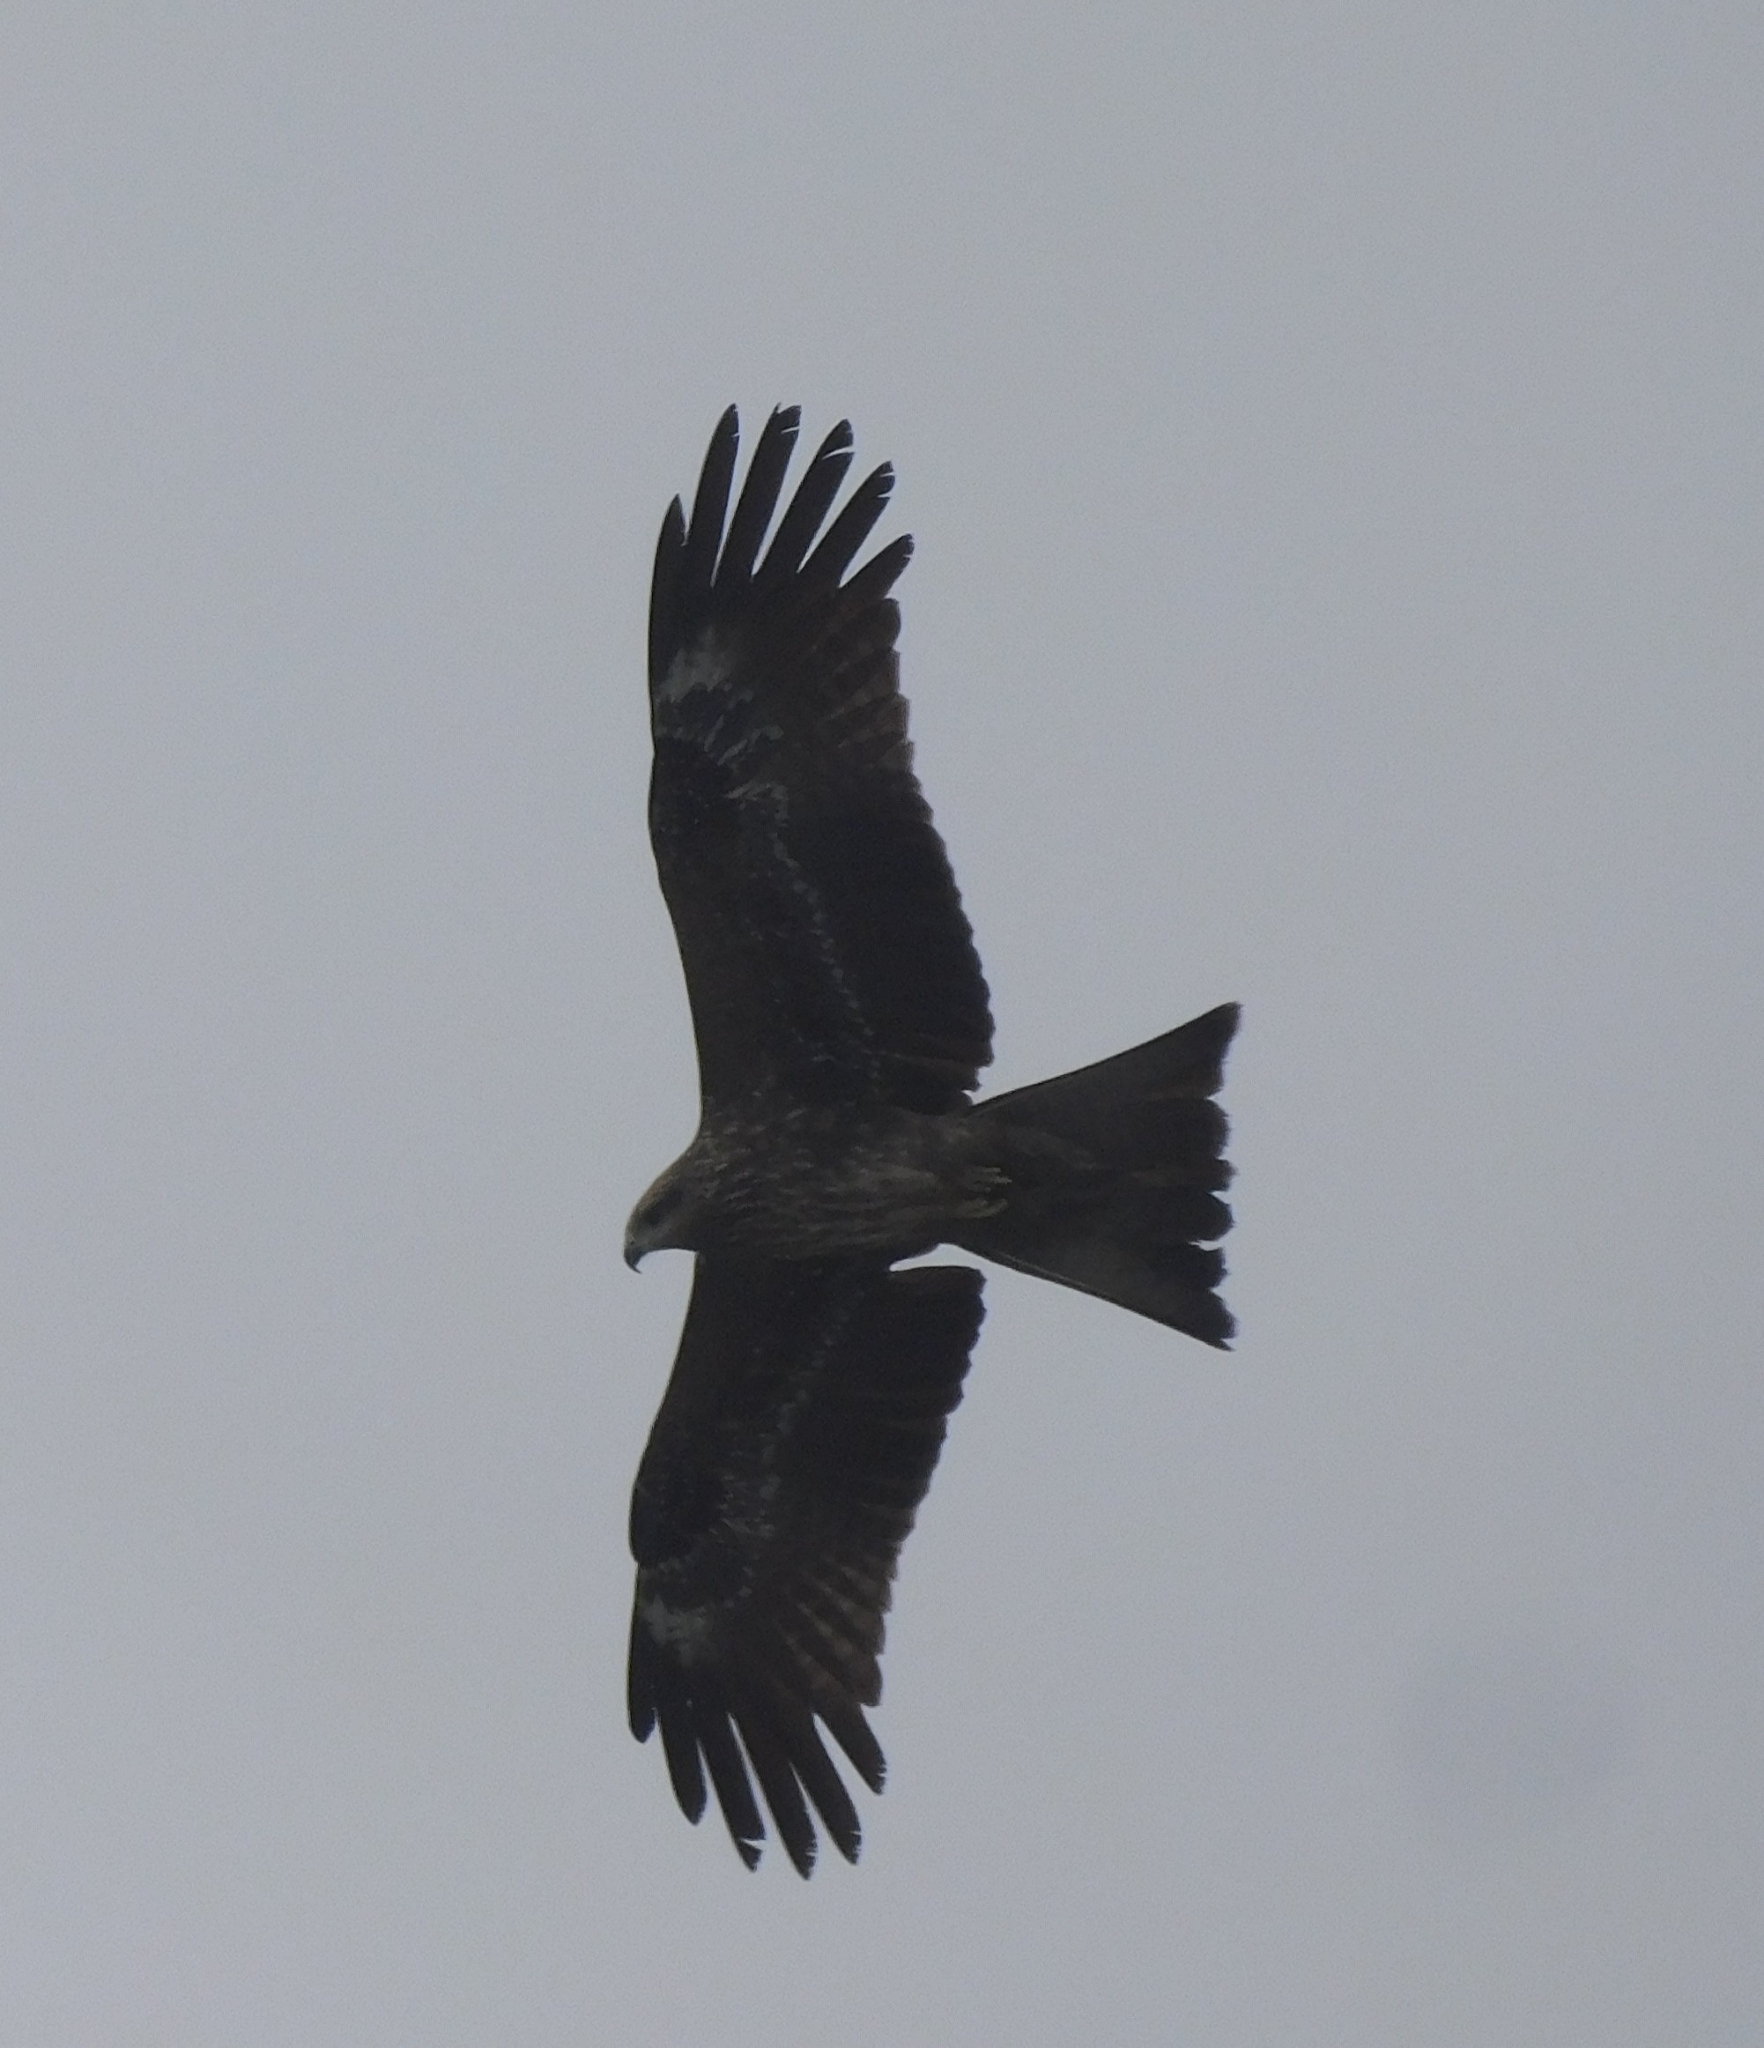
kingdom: Animalia
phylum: Chordata
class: Aves
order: Accipitriformes
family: Accipitridae
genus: Milvus
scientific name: Milvus migrans
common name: Black kite
